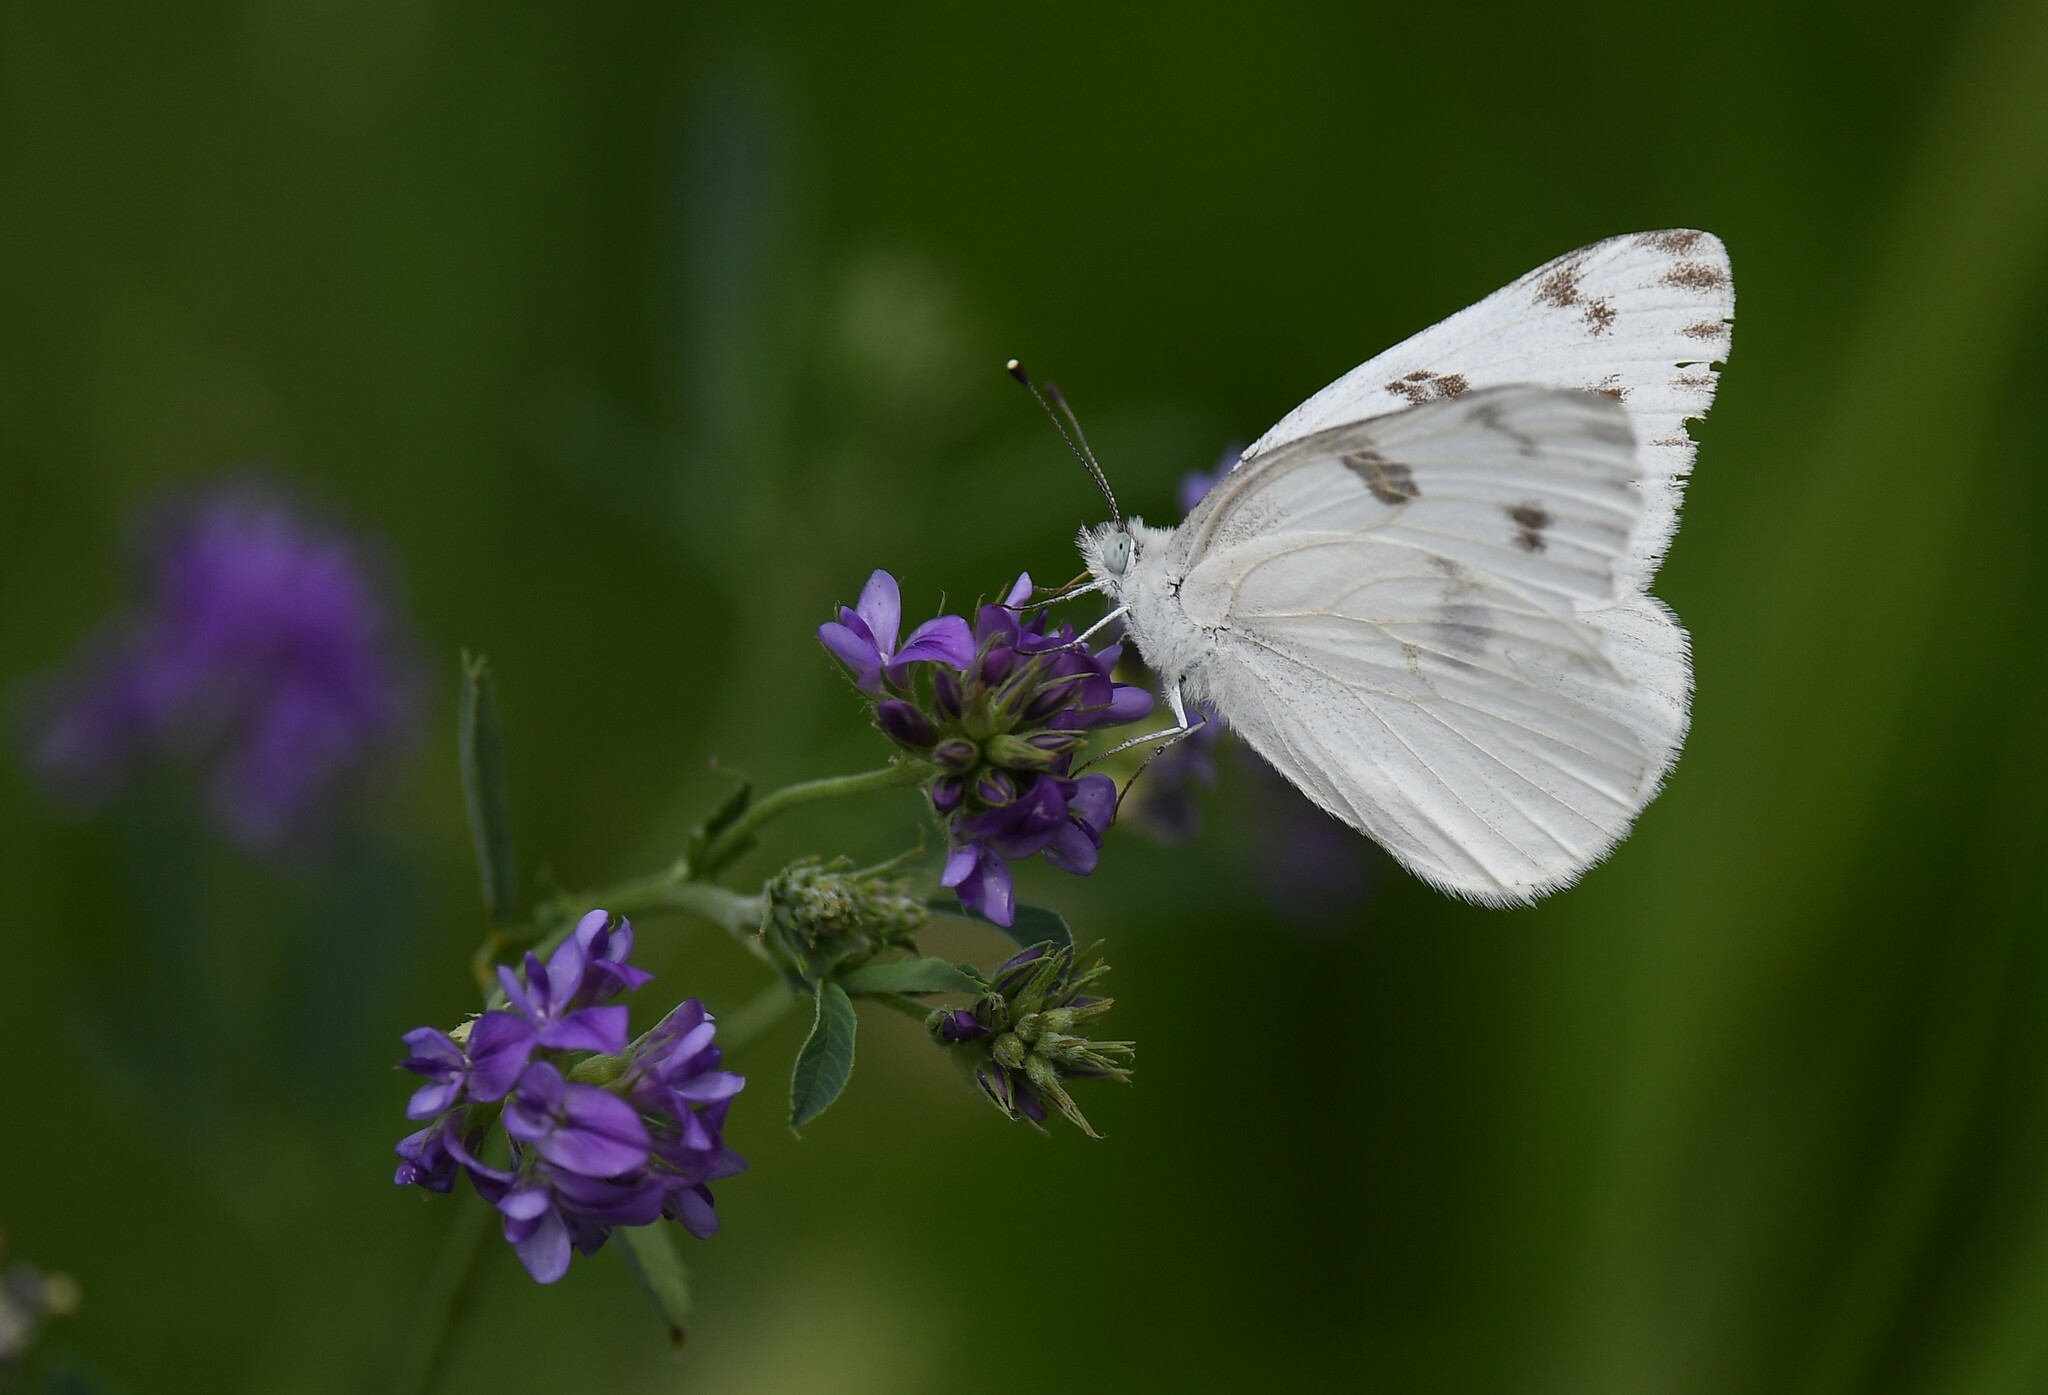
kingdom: Animalia
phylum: Arthropoda
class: Insecta
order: Lepidoptera
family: Pieridae
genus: Pontia
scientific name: Pontia protodice
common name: Checkered white
